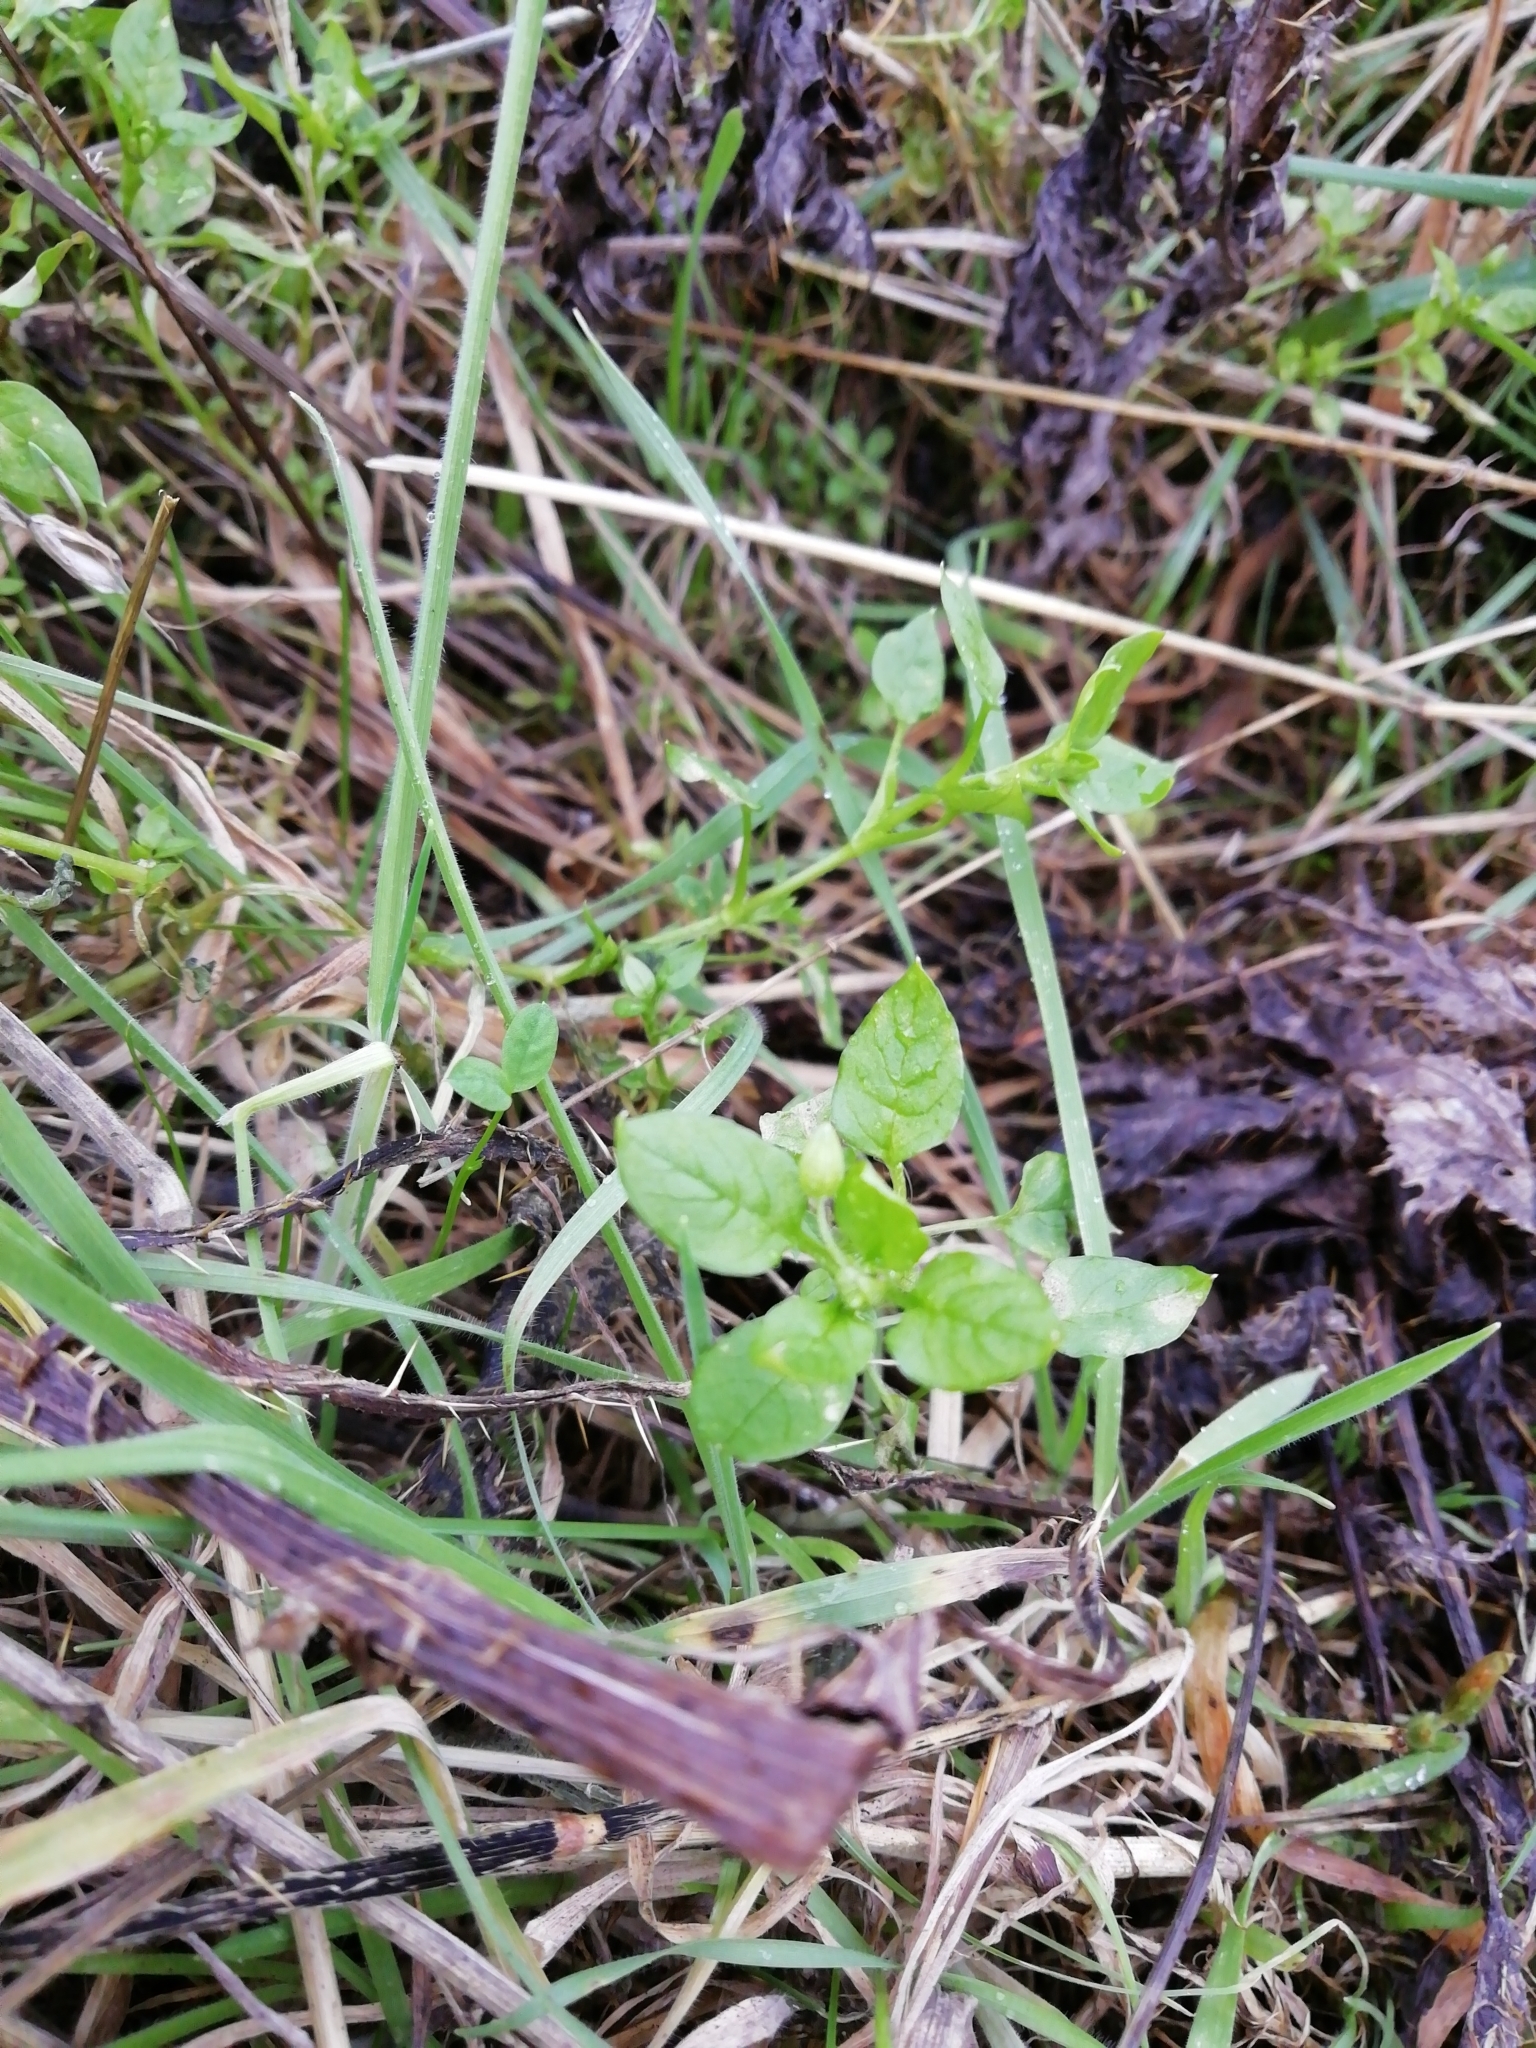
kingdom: Plantae
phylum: Tracheophyta
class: Magnoliopsida
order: Caryophyllales
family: Caryophyllaceae
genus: Stellaria
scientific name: Stellaria media
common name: Common chickweed
